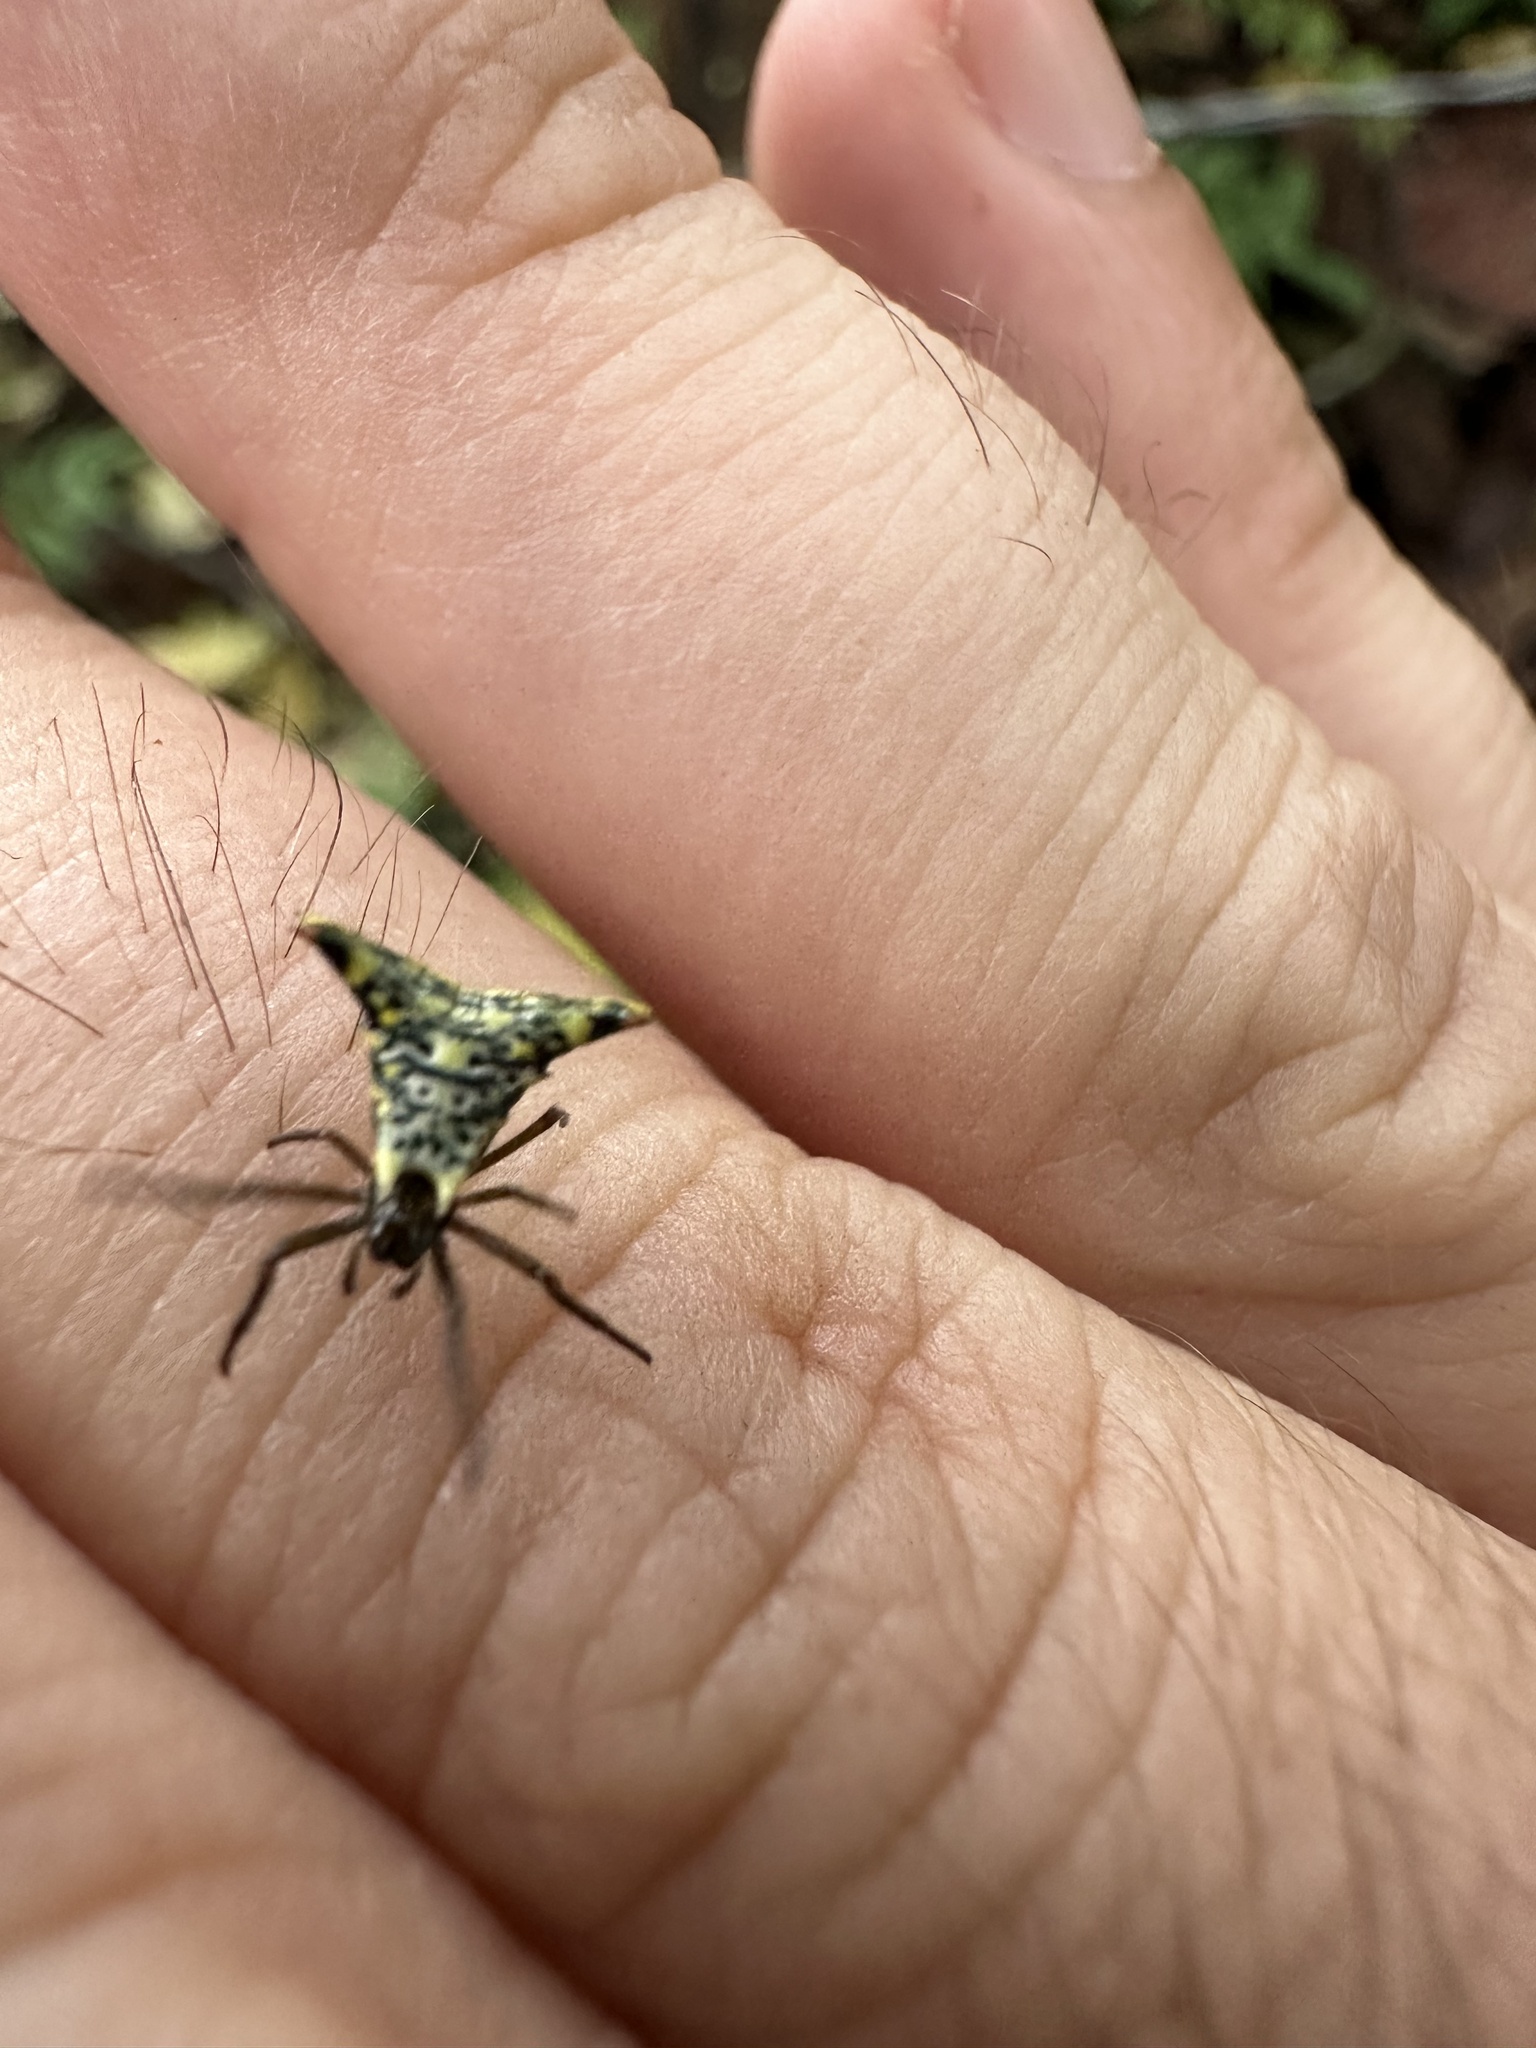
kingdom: Animalia
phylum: Arthropoda
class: Arachnida
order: Araneae
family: Araneidae
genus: Micrathena
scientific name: Micrathena lucasi
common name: Orb weavers
